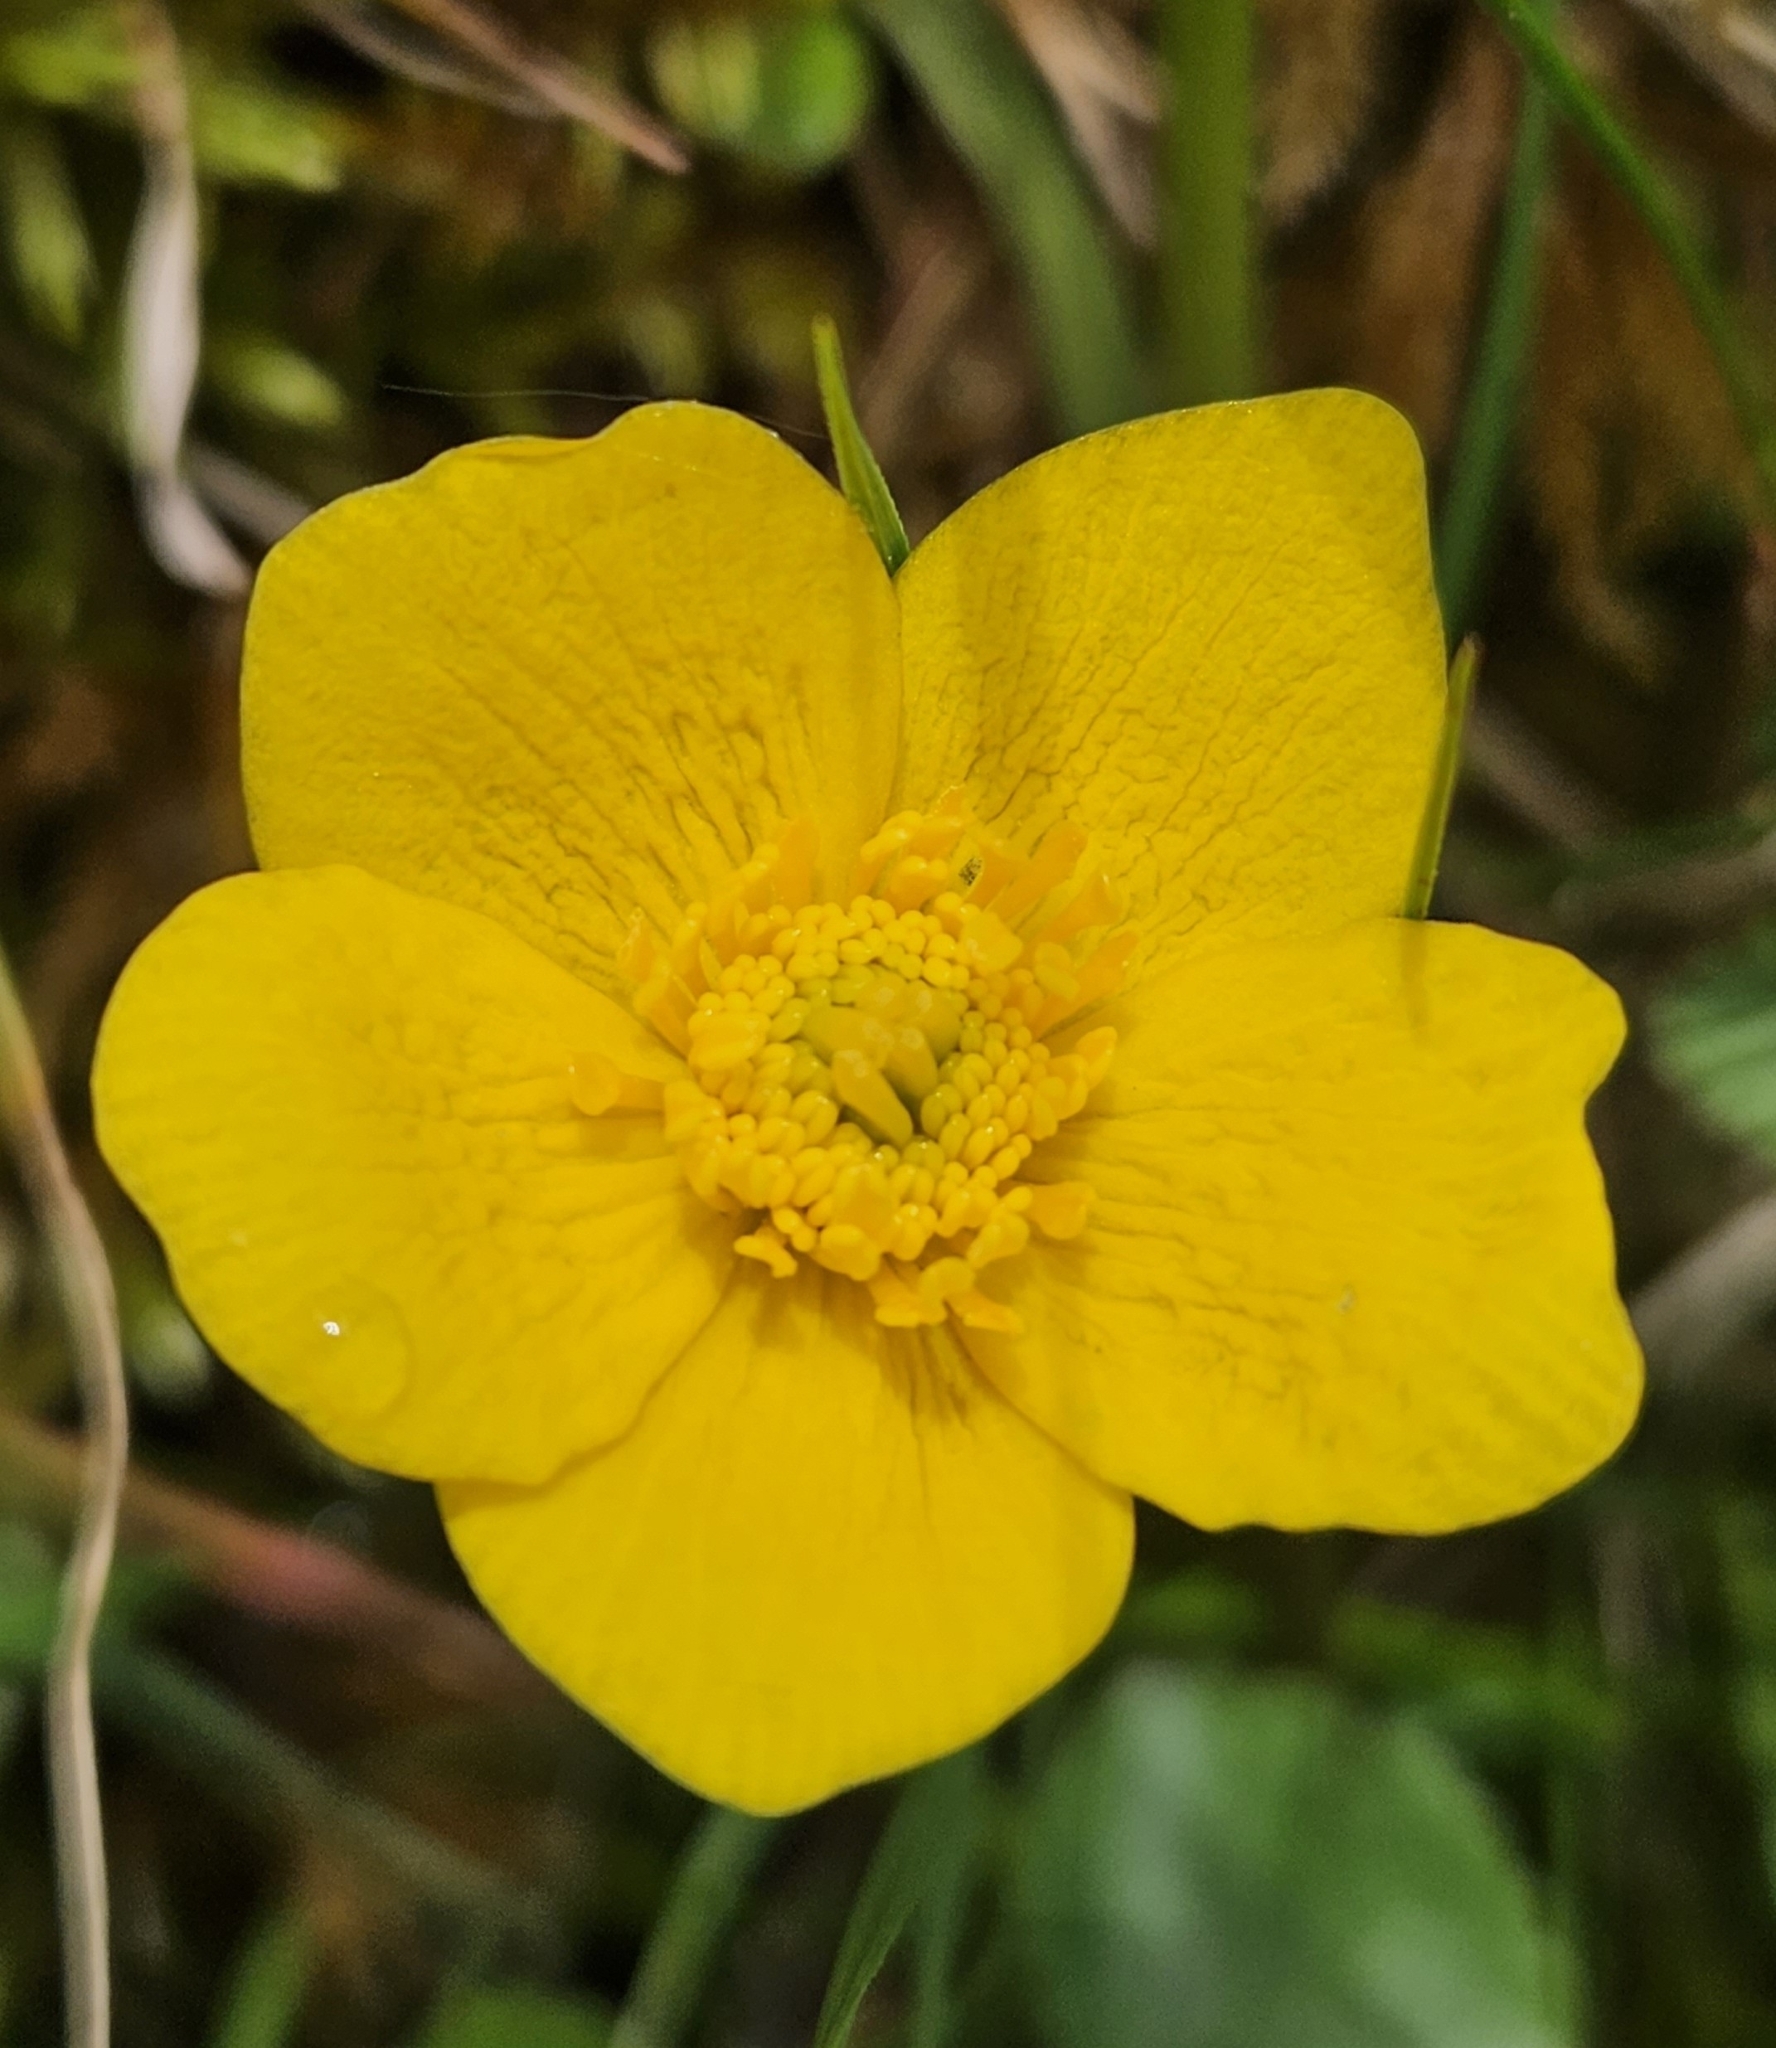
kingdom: Plantae
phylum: Tracheophyta
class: Magnoliopsida
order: Ranunculales
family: Ranunculaceae
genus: Caltha
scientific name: Caltha palustris
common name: Marsh marigold
